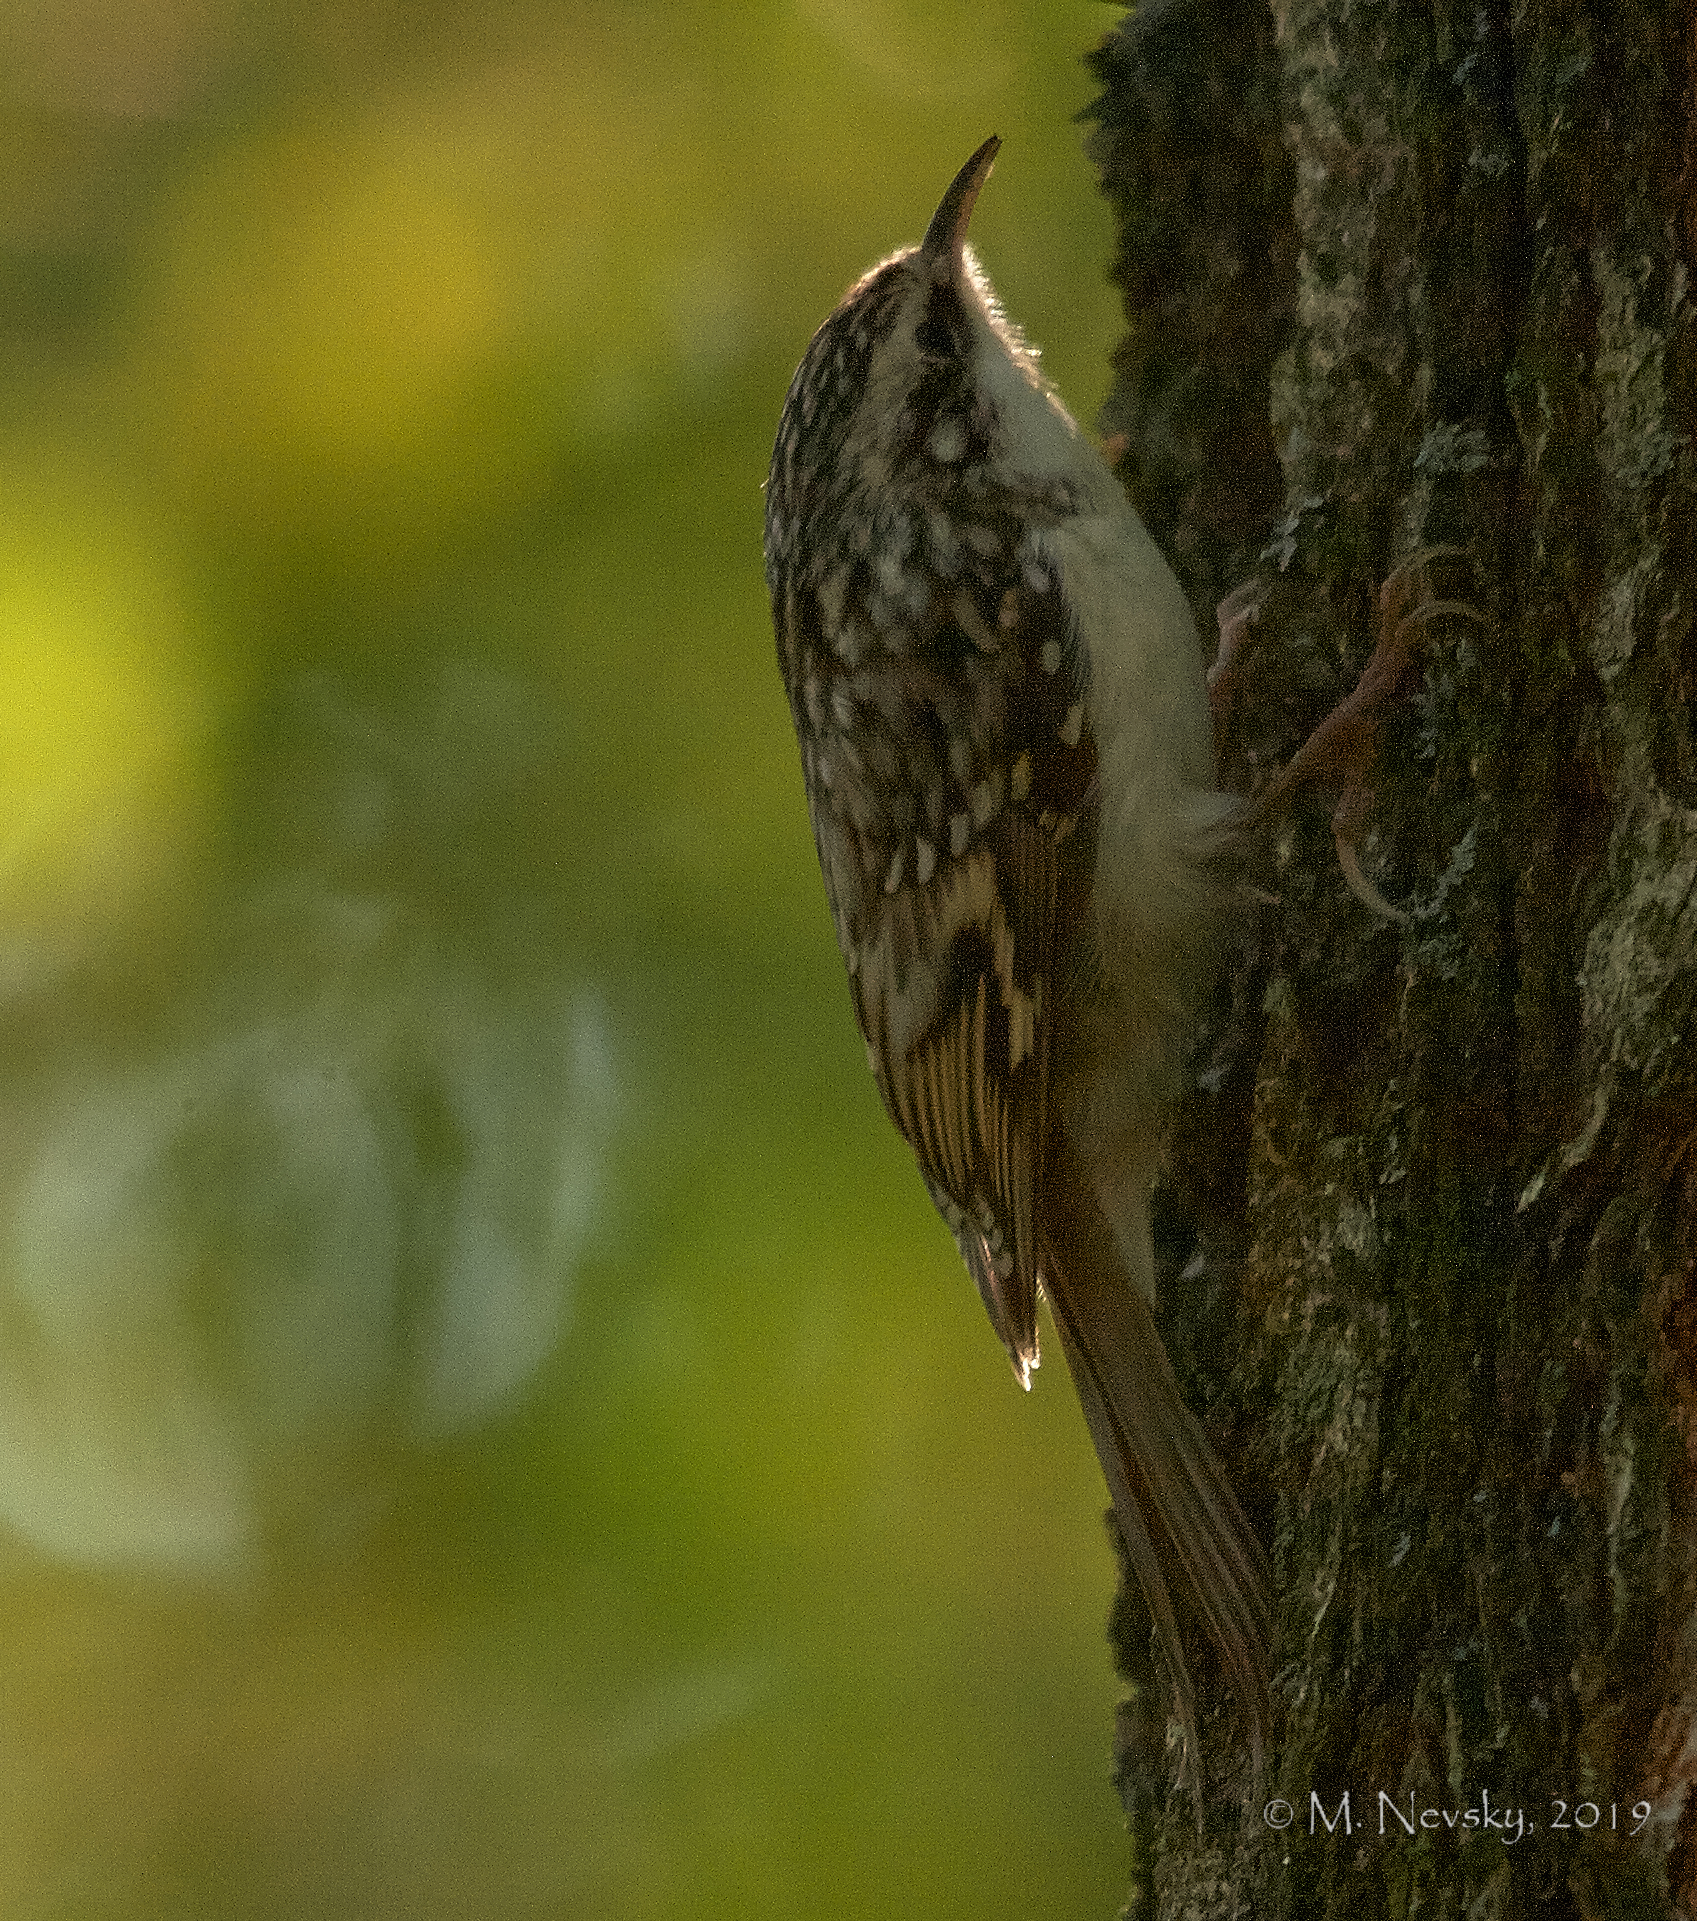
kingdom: Animalia
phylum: Chordata
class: Aves
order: Passeriformes
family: Certhiidae
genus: Certhia
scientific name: Certhia familiaris
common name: Eurasian treecreeper
